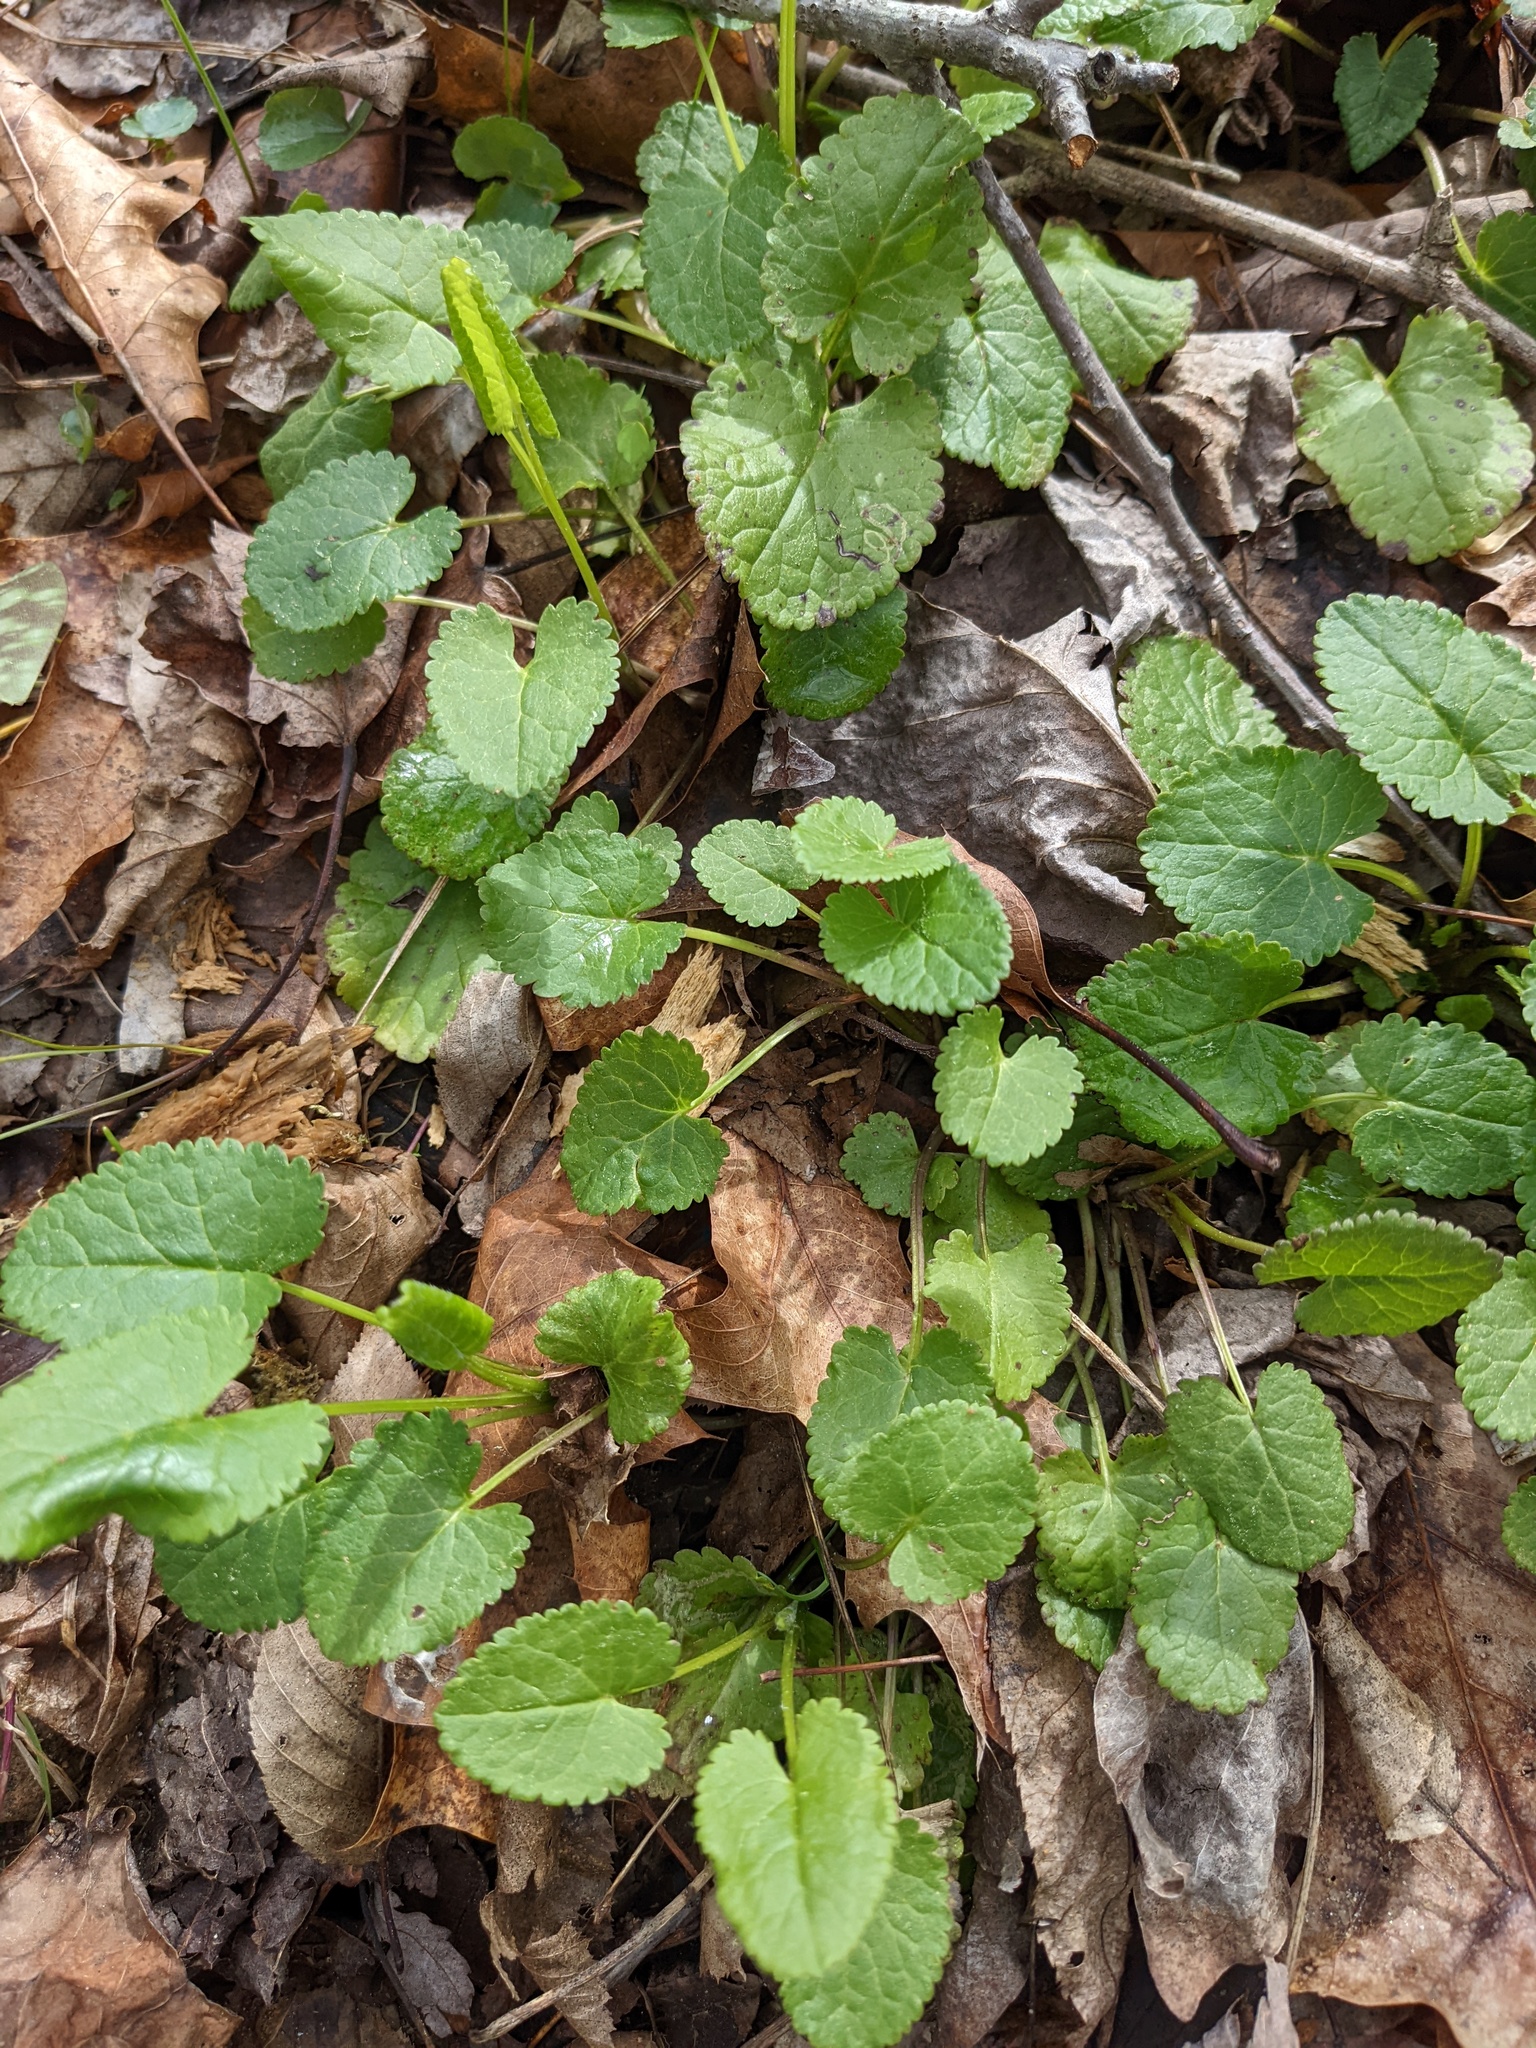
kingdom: Plantae
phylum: Tracheophyta
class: Magnoliopsida
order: Asterales
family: Asteraceae
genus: Packera
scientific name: Packera aurea
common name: Golden groundsel
